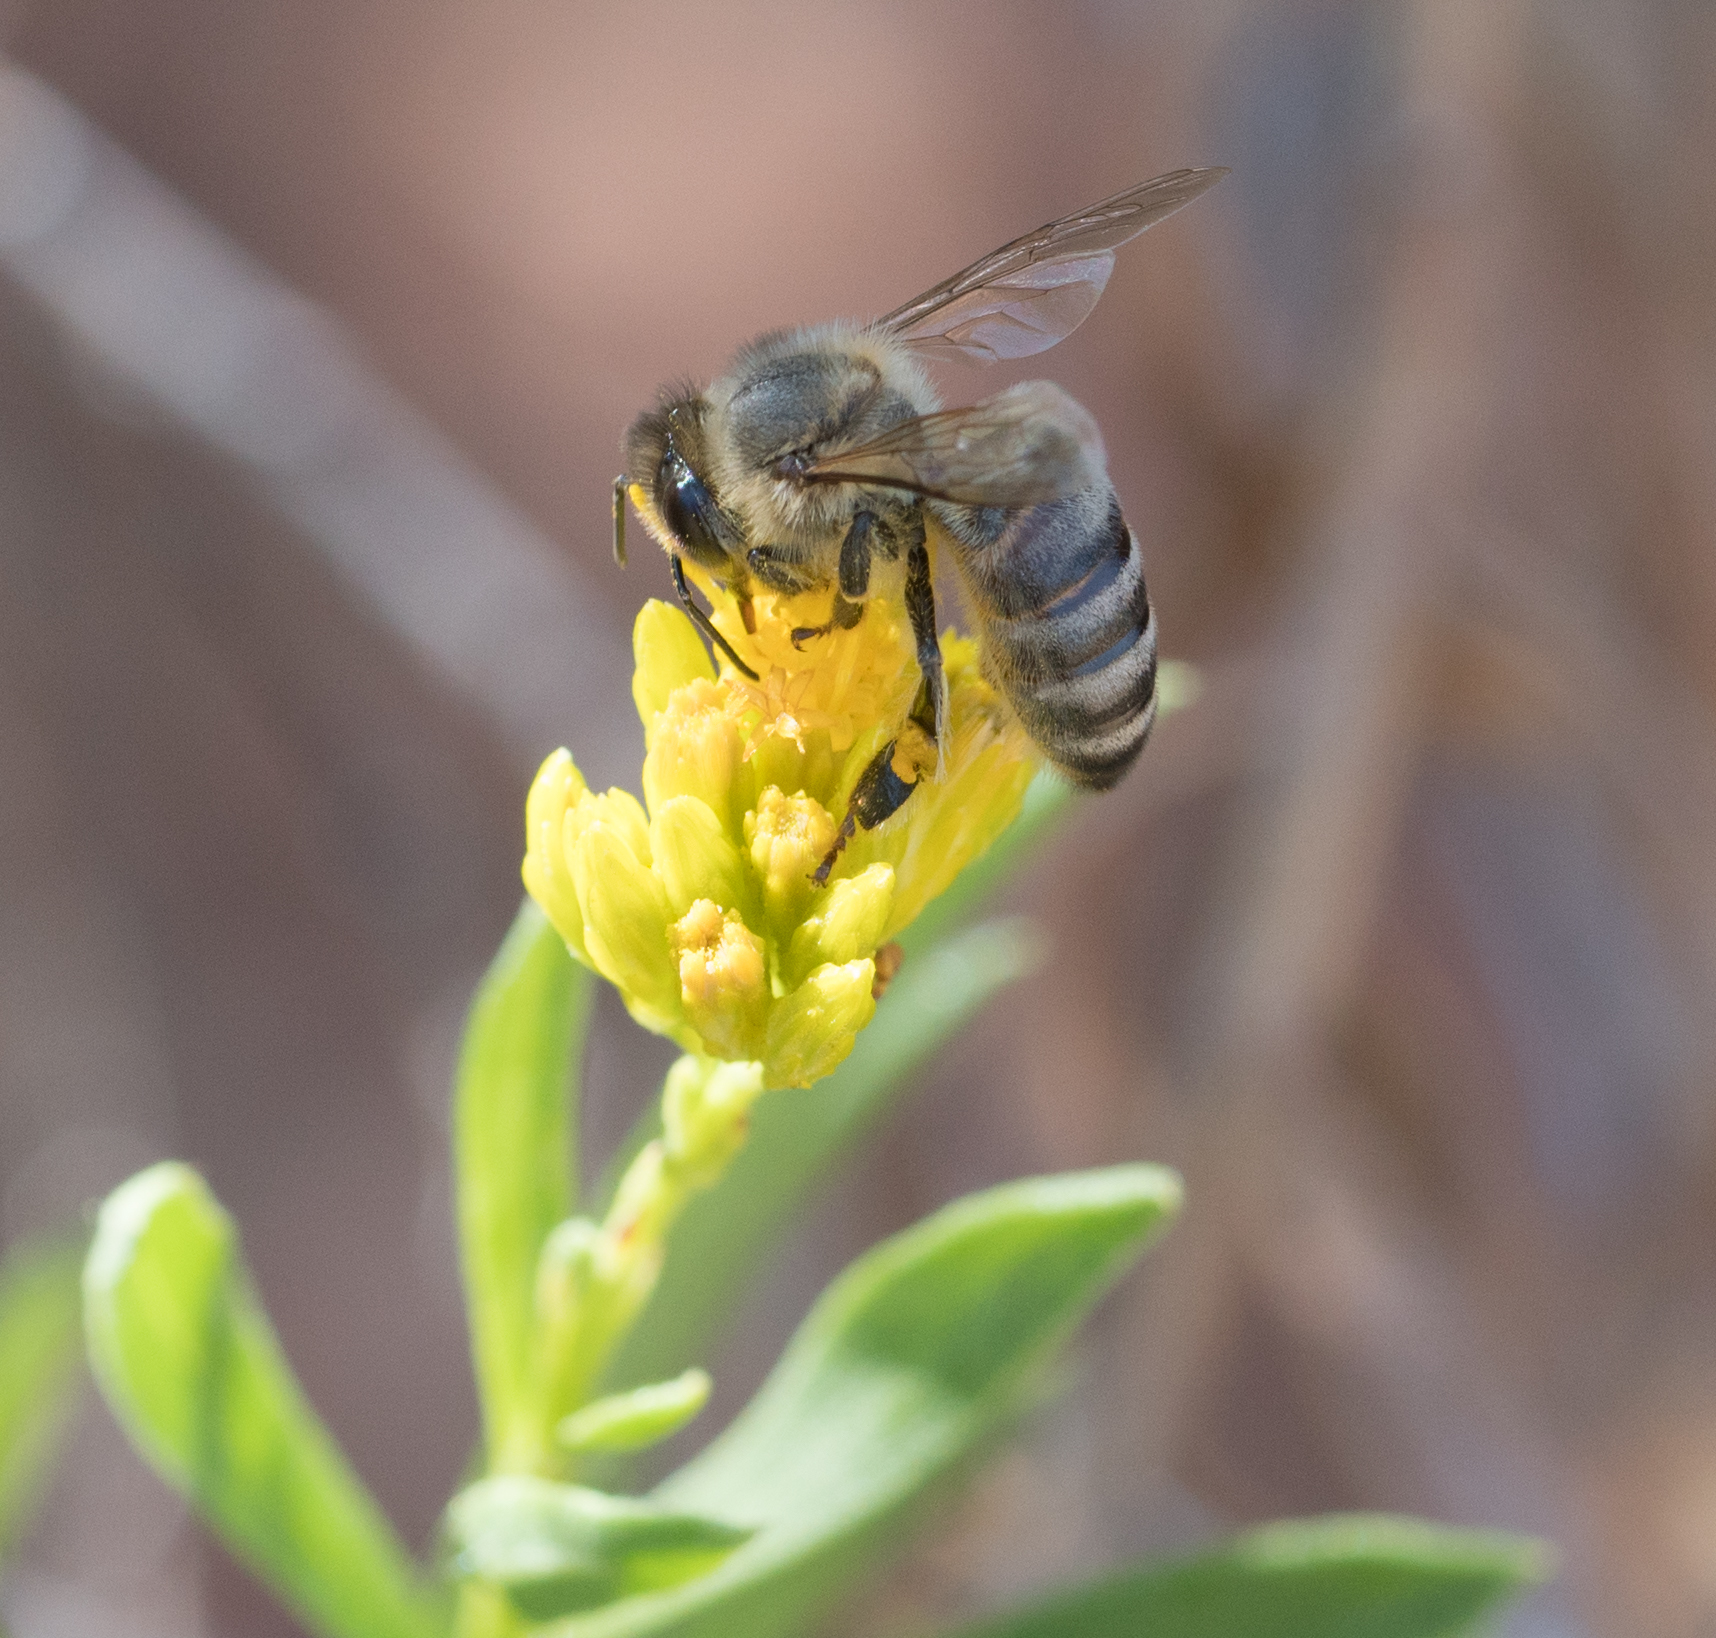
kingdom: Animalia
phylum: Arthropoda
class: Insecta
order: Hymenoptera
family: Apidae
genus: Apis
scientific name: Apis mellifera
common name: Honey bee
